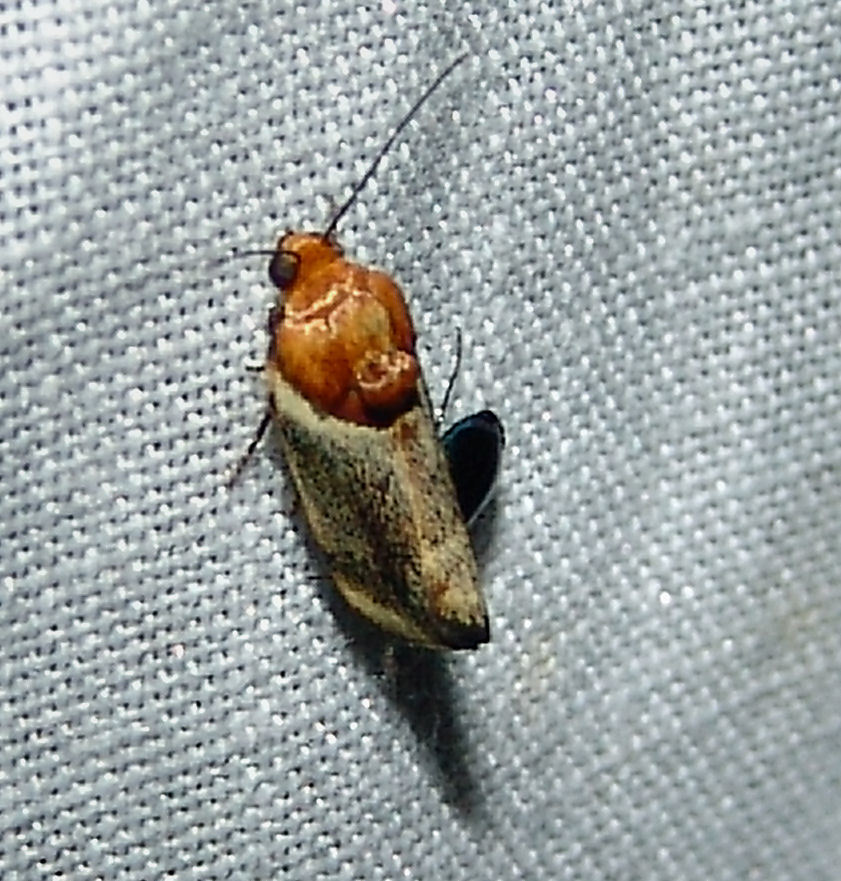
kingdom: Animalia
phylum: Arthropoda
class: Insecta
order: Lepidoptera
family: Noctuidae
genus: Spragueia
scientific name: Spragueia apicalis
